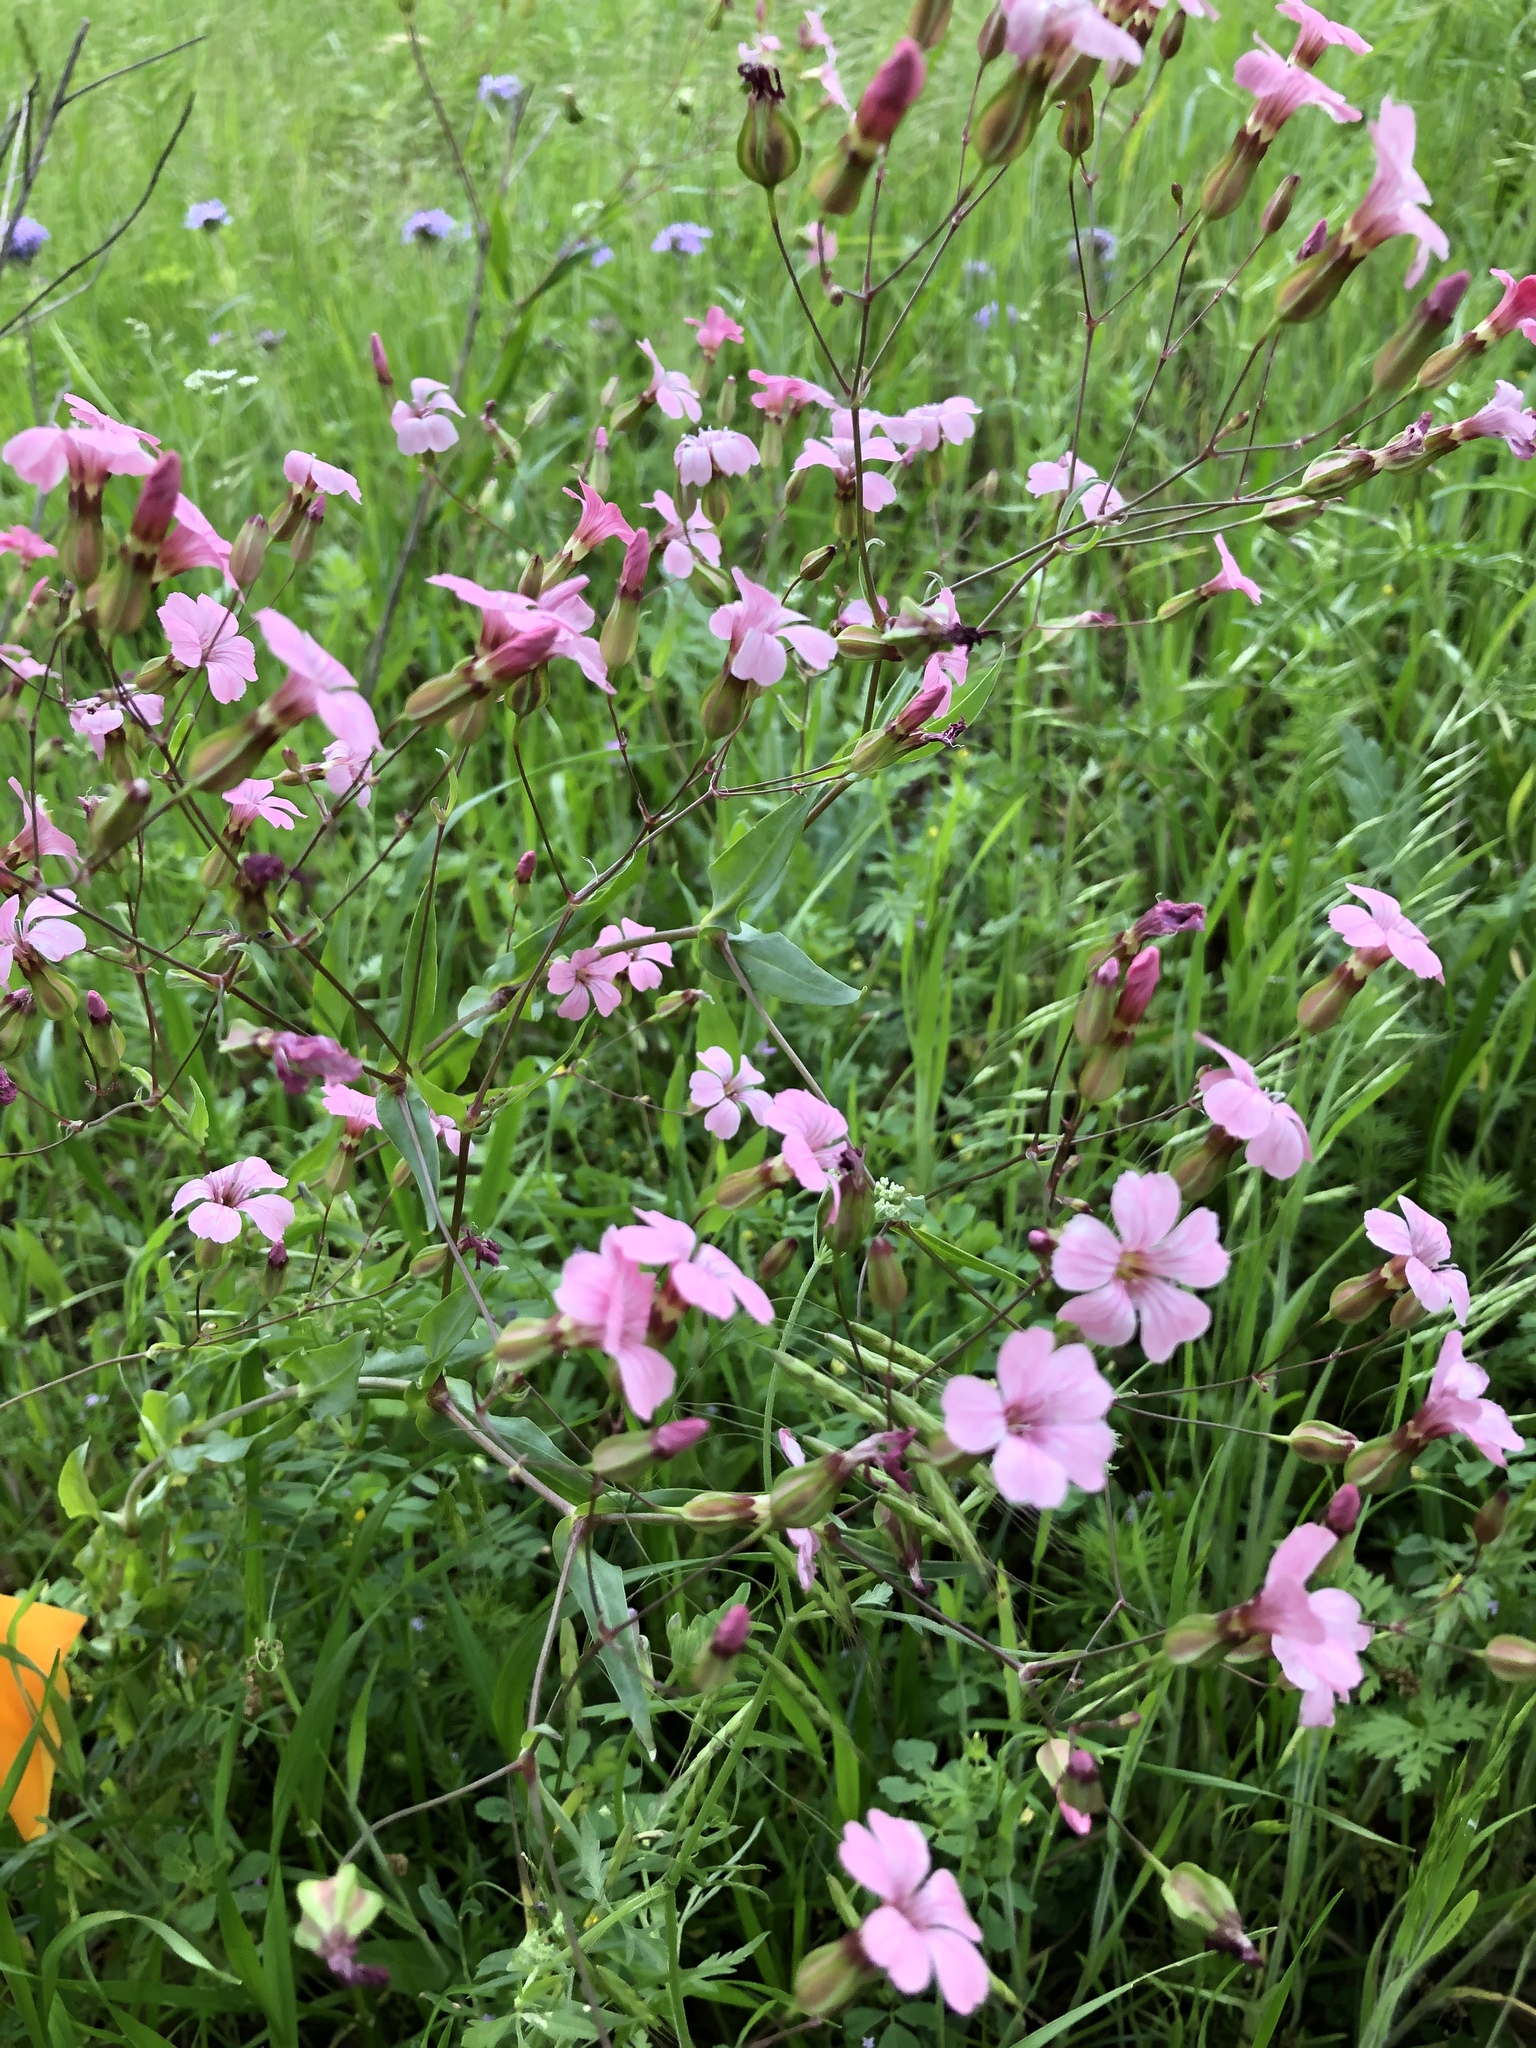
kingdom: Plantae
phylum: Tracheophyta
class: Magnoliopsida
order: Caryophyllales
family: Caryophyllaceae
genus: Gypsophila
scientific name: Gypsophila vaccaria
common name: Cow soapwort
